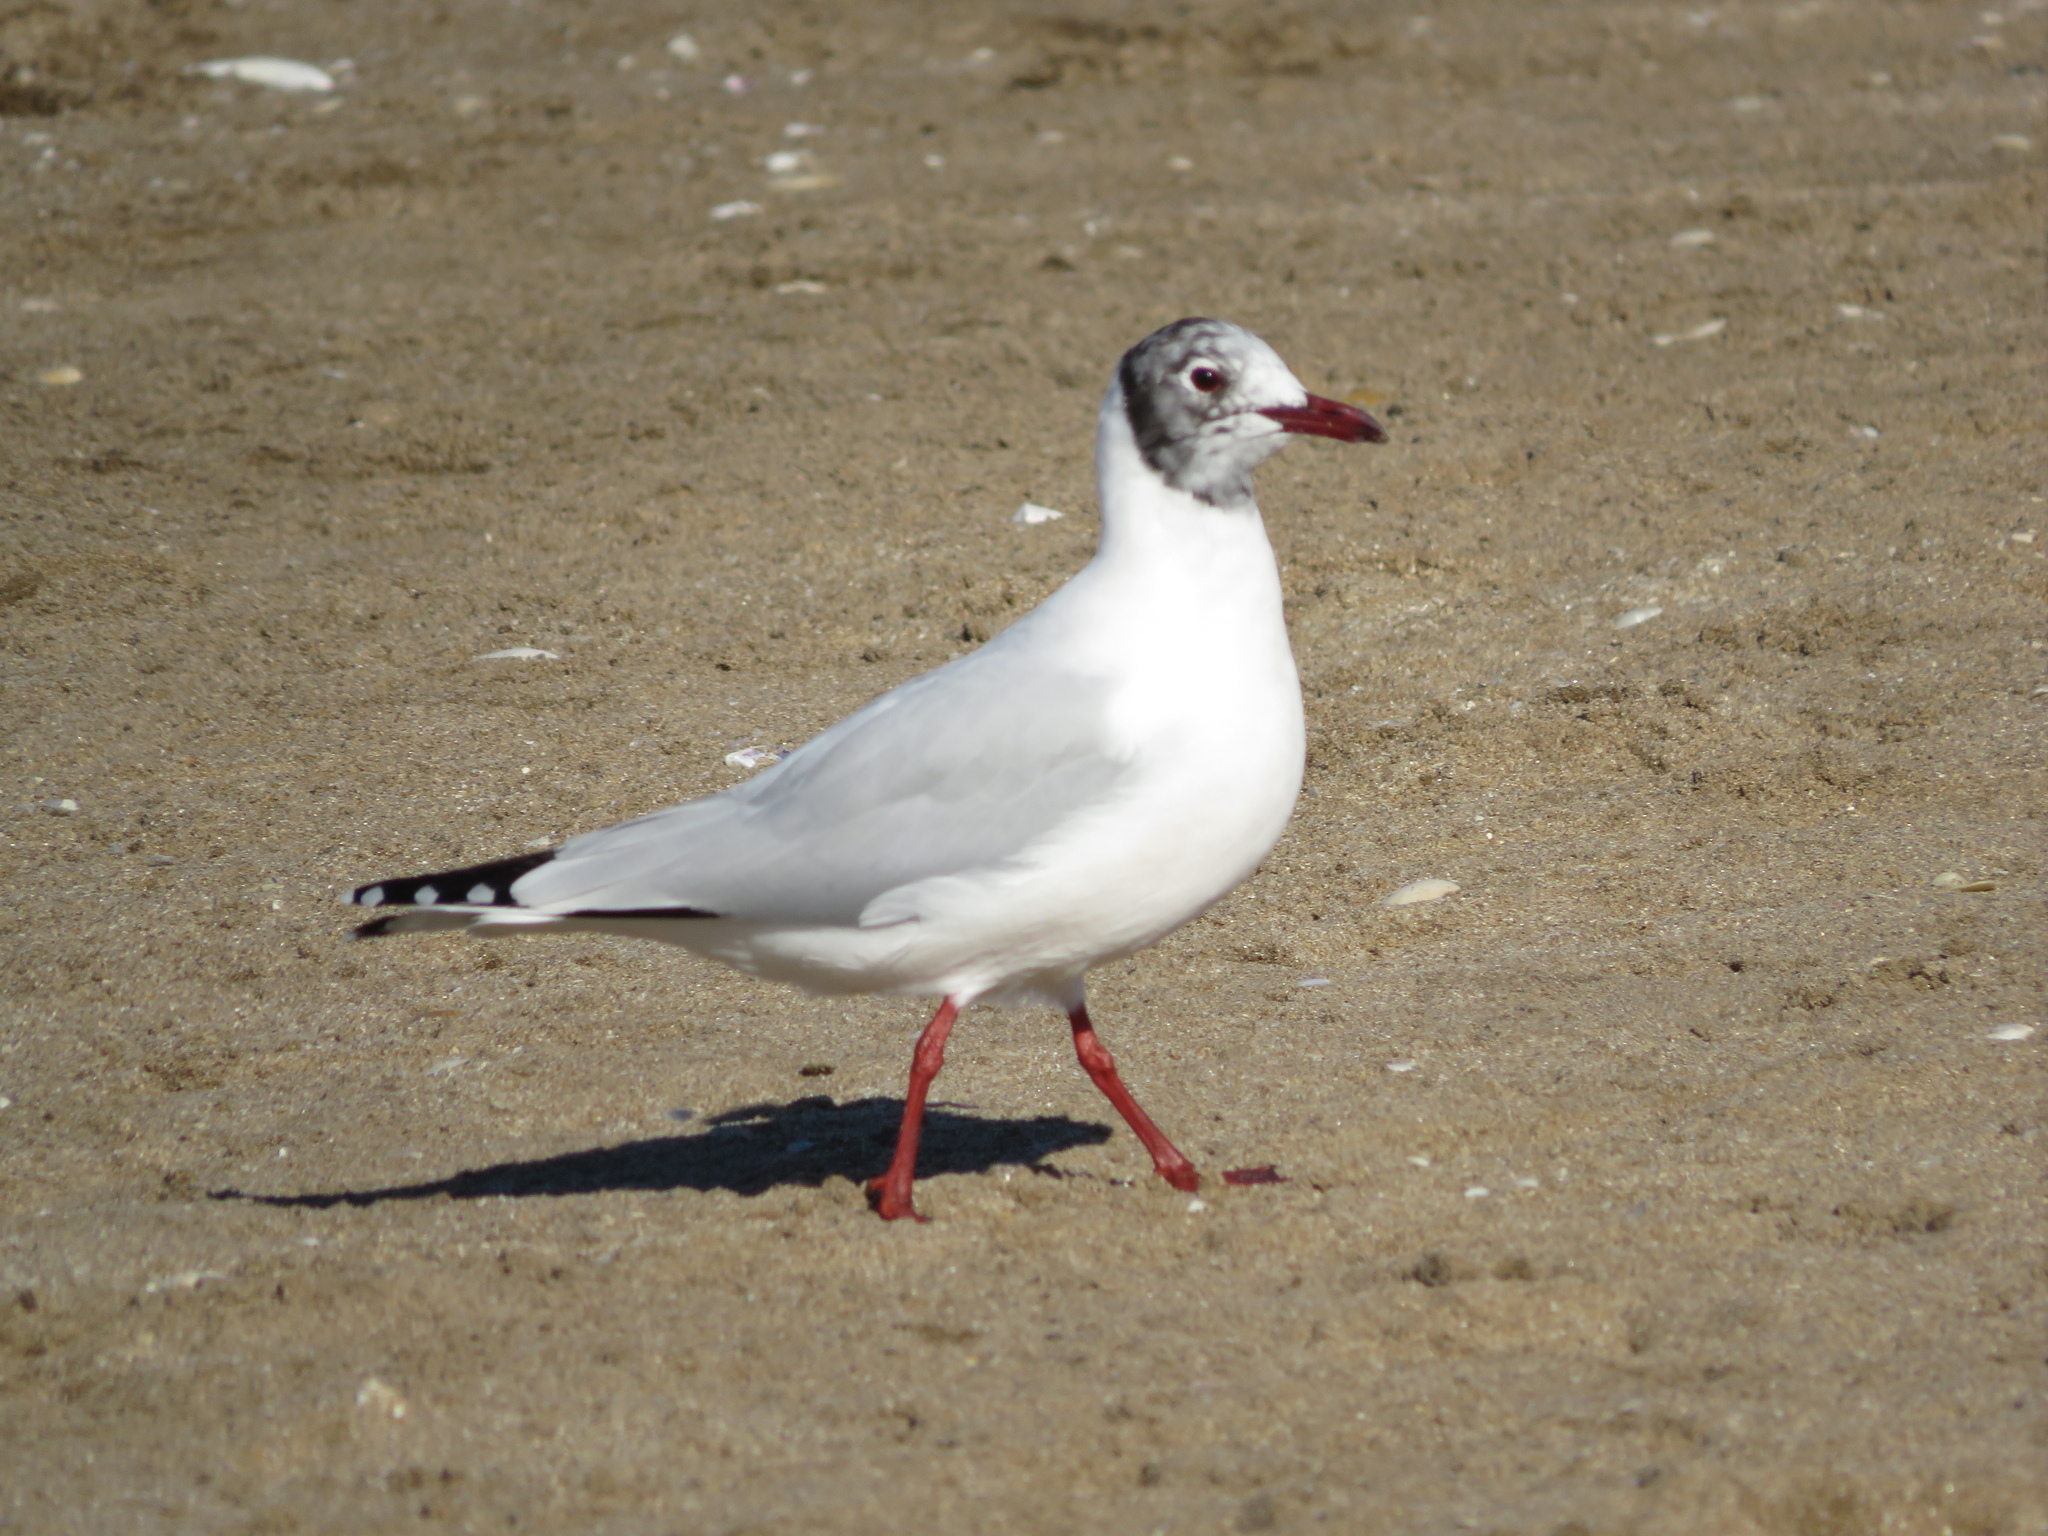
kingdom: Animalia
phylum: Chordata
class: Aves
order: Charadriiformes
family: Laridae
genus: Chroicocephalus
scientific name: Chroicocephalus maculipennis
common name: Brown-hooded gull
